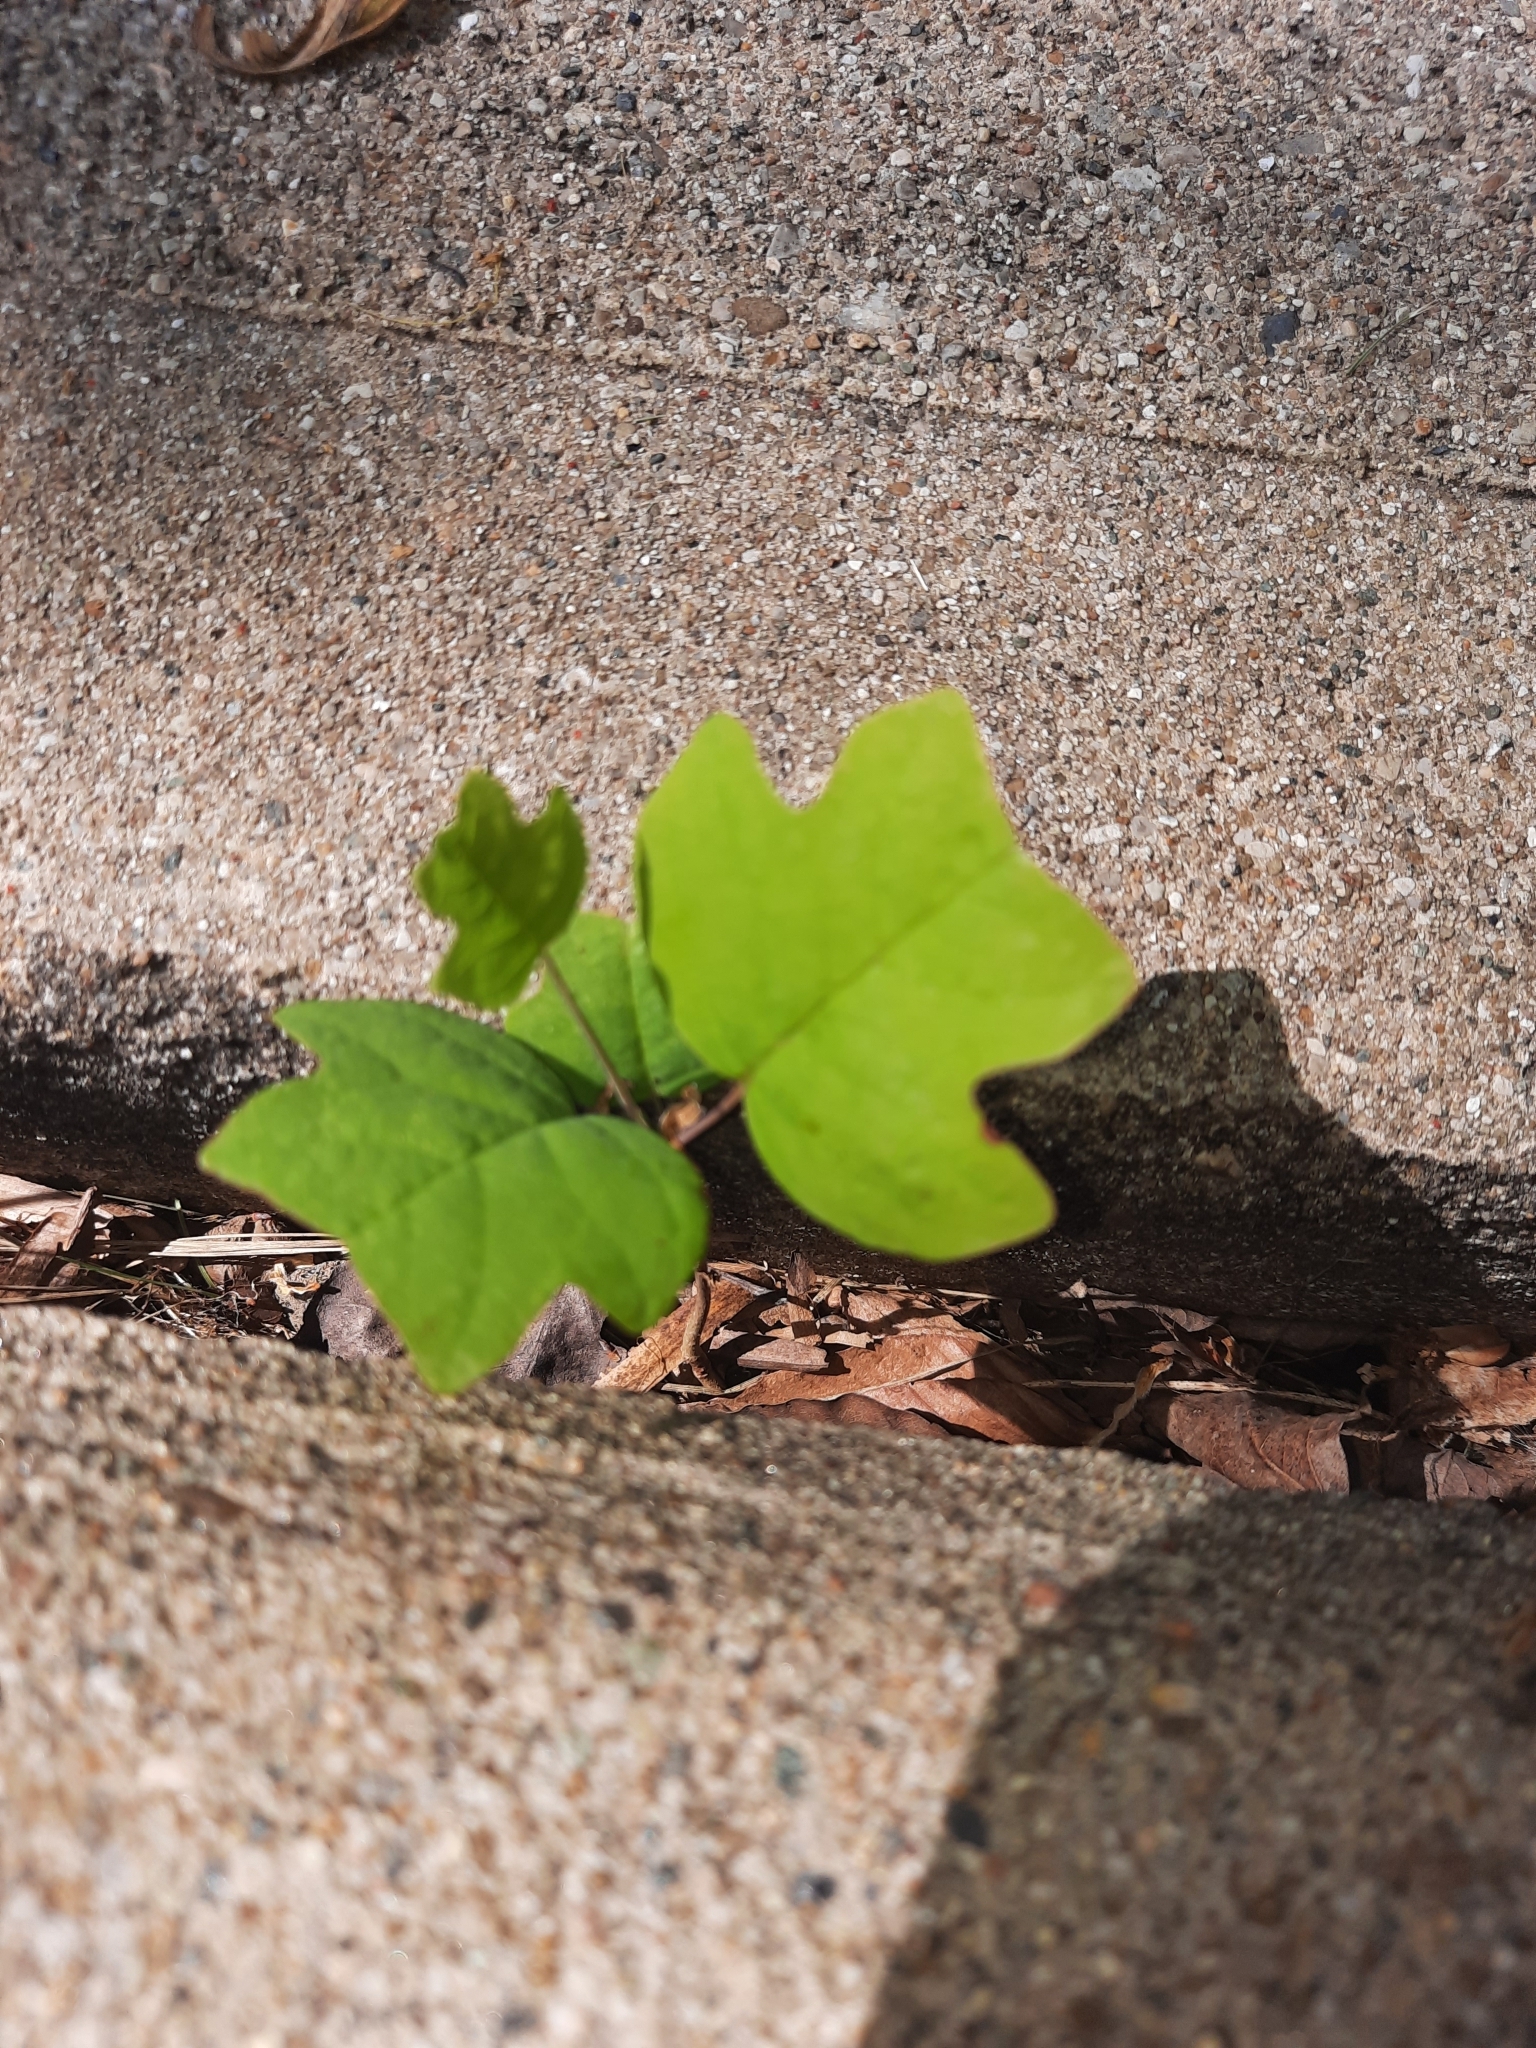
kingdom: Plantae
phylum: Tracheophyta
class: Magnoliopsida
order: Magnoliales
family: Magnoliaceae
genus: Liriodendron
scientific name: Liriodendron tulipifera
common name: Tulip tree
